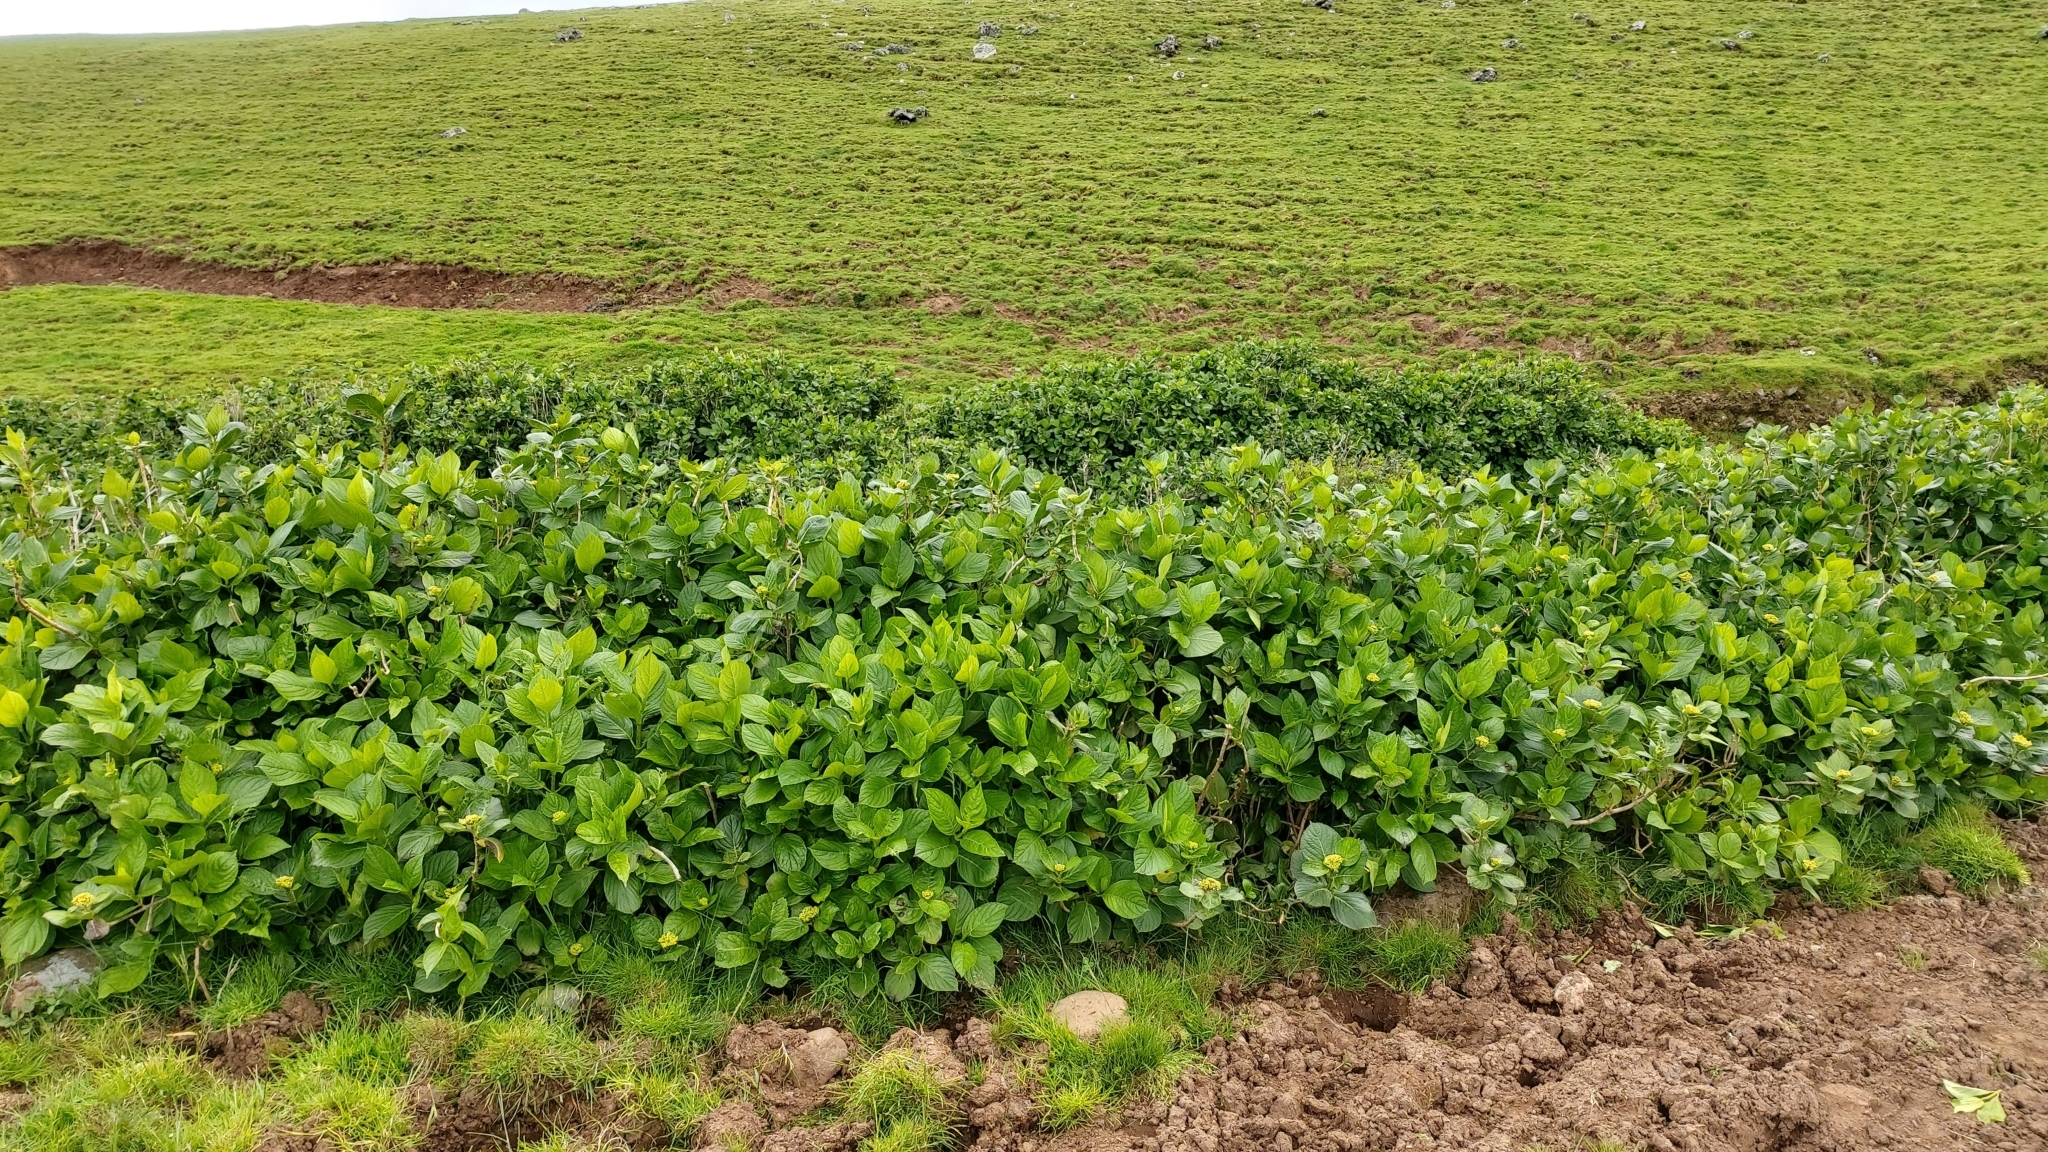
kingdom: Plantae
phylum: Tracheophyta
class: Magnoliopsida
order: Cornales
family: Hydrangeaceae
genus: Hydrangea
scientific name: Hydrangea macrophylla
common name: Hydrangea
